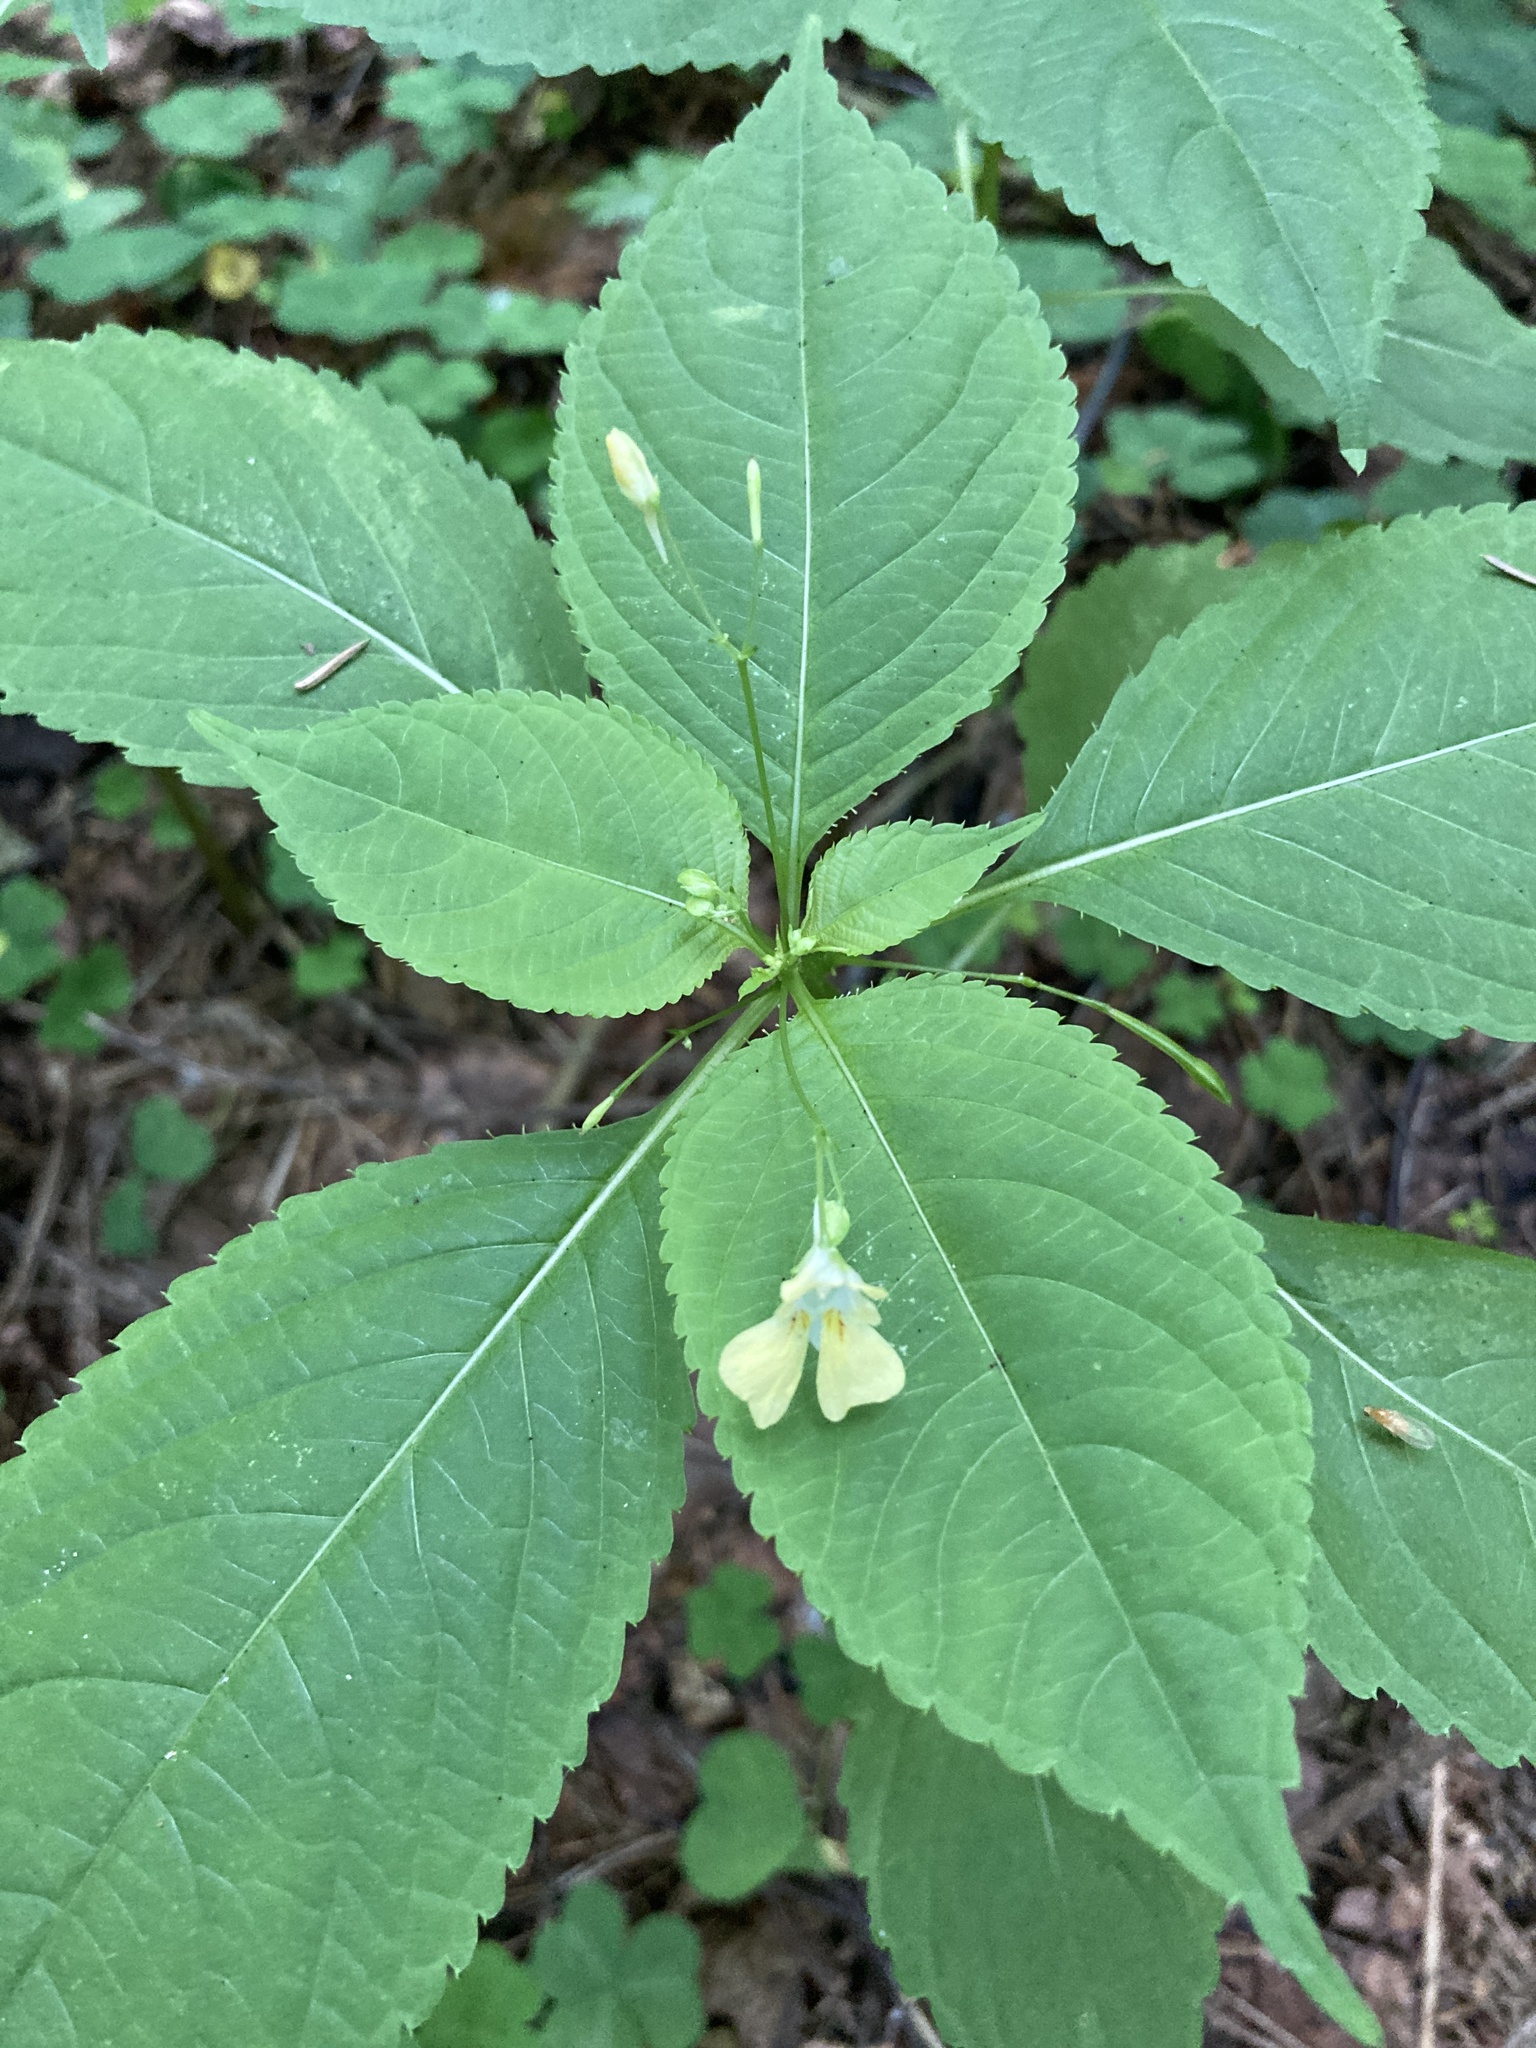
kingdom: Plantae
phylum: Tracheophyta
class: Magnoliopsida
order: Ericales
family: Balsaminaceae
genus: Impatiens
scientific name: Impatiens parviflora
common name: Small balsam
